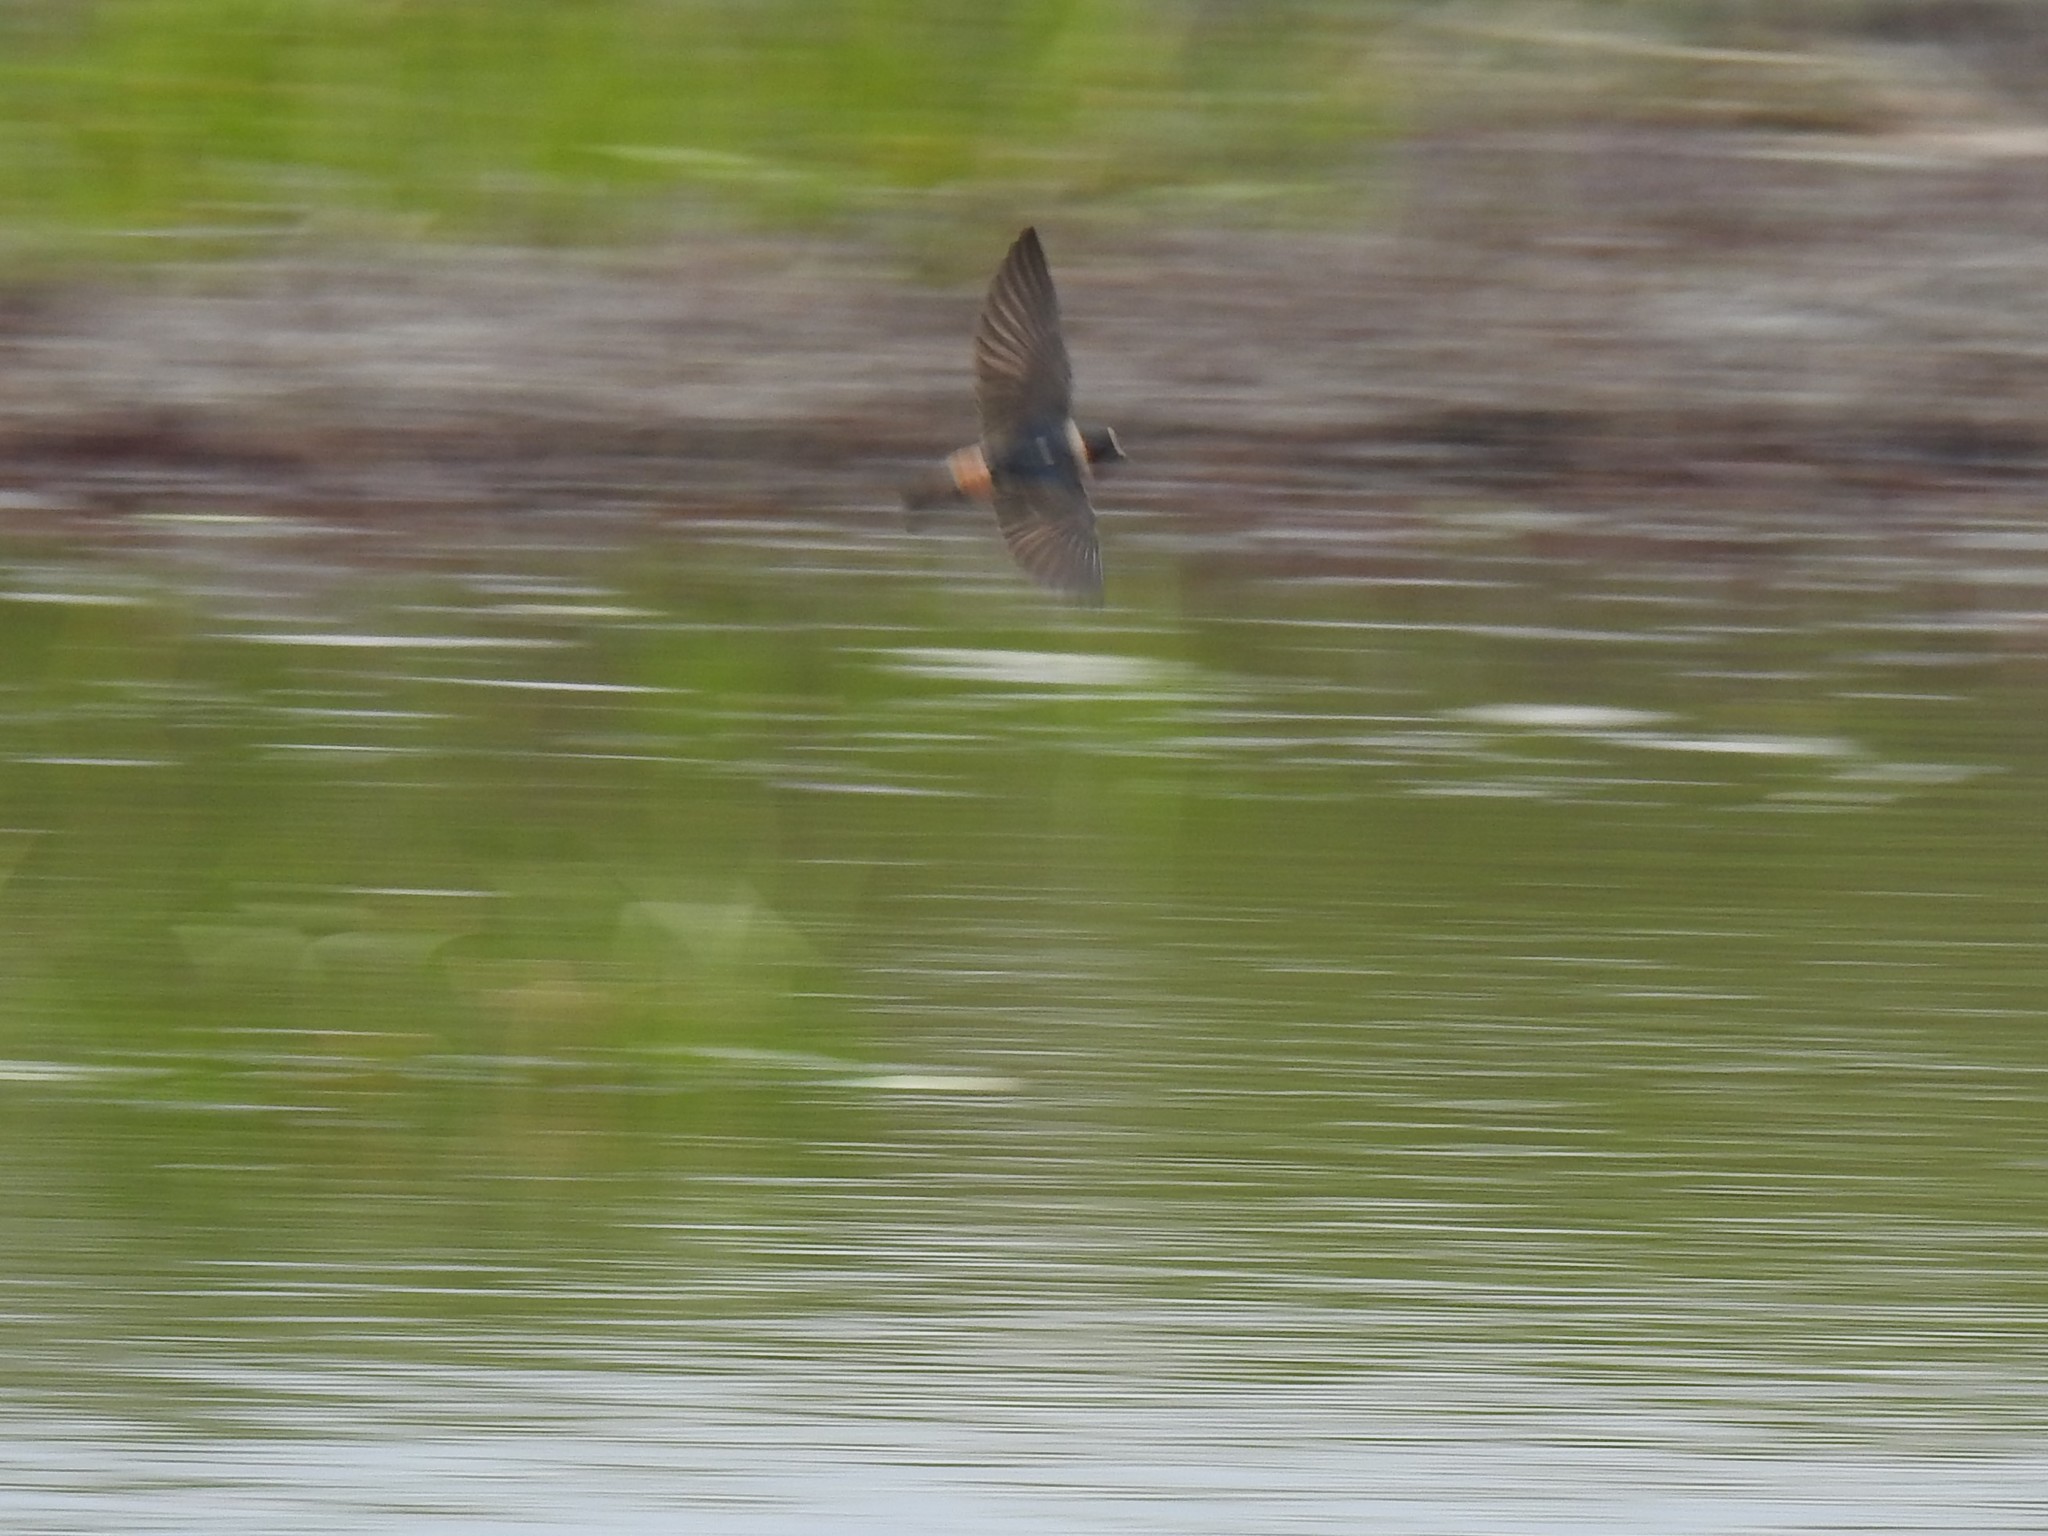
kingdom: Animalia
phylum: Chordata
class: Aves
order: Passeriformes
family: Hirundinidae
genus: Petrochelidon
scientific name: Petrochelidon pyrrhonota
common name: American cliff swallow
